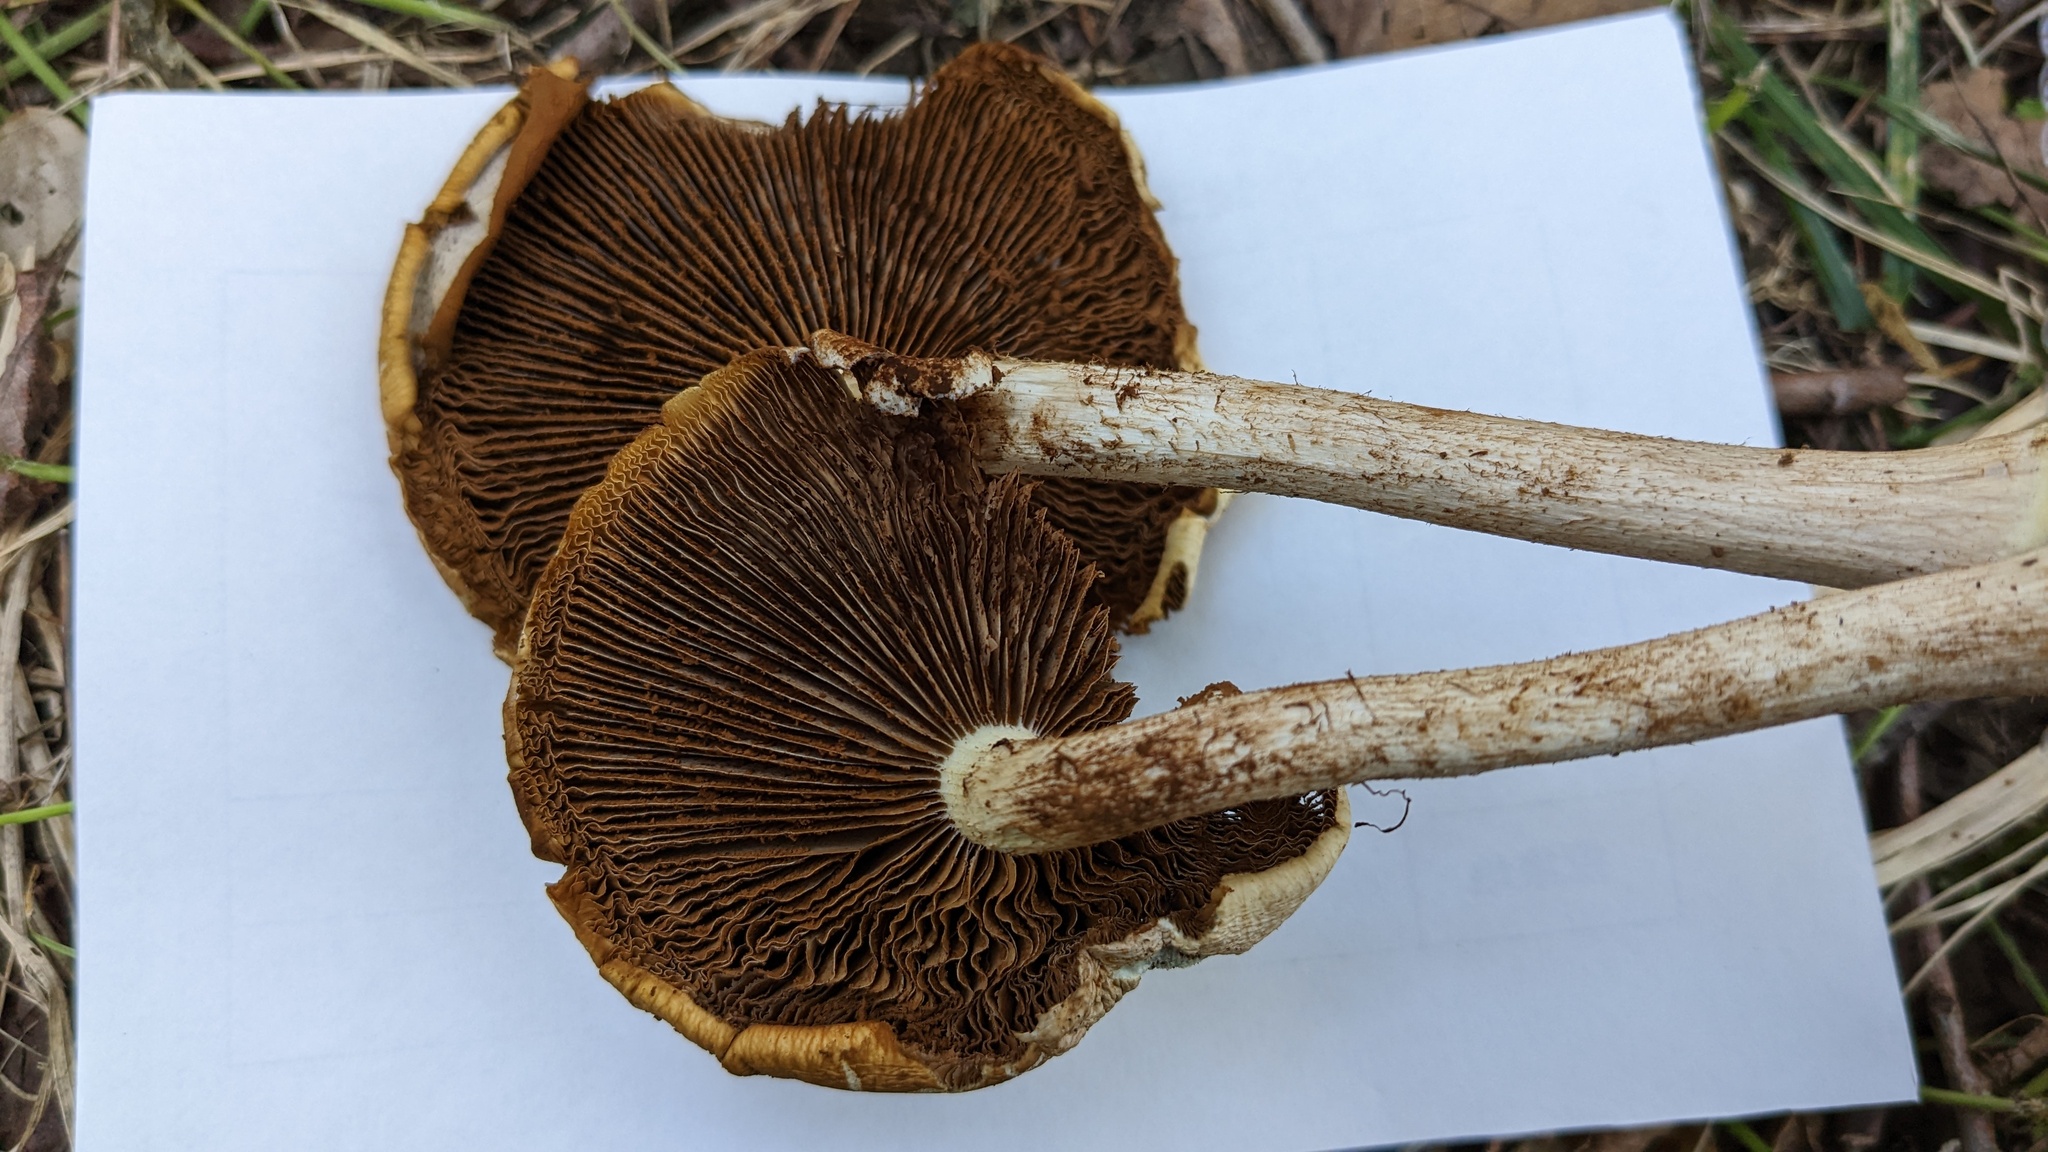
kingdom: Fungi
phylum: Basidiomycota
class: Agaricomycetes
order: Agaricales
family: Tubariaceae
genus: Cyclocybe
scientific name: Cyclocybe cylindracea
